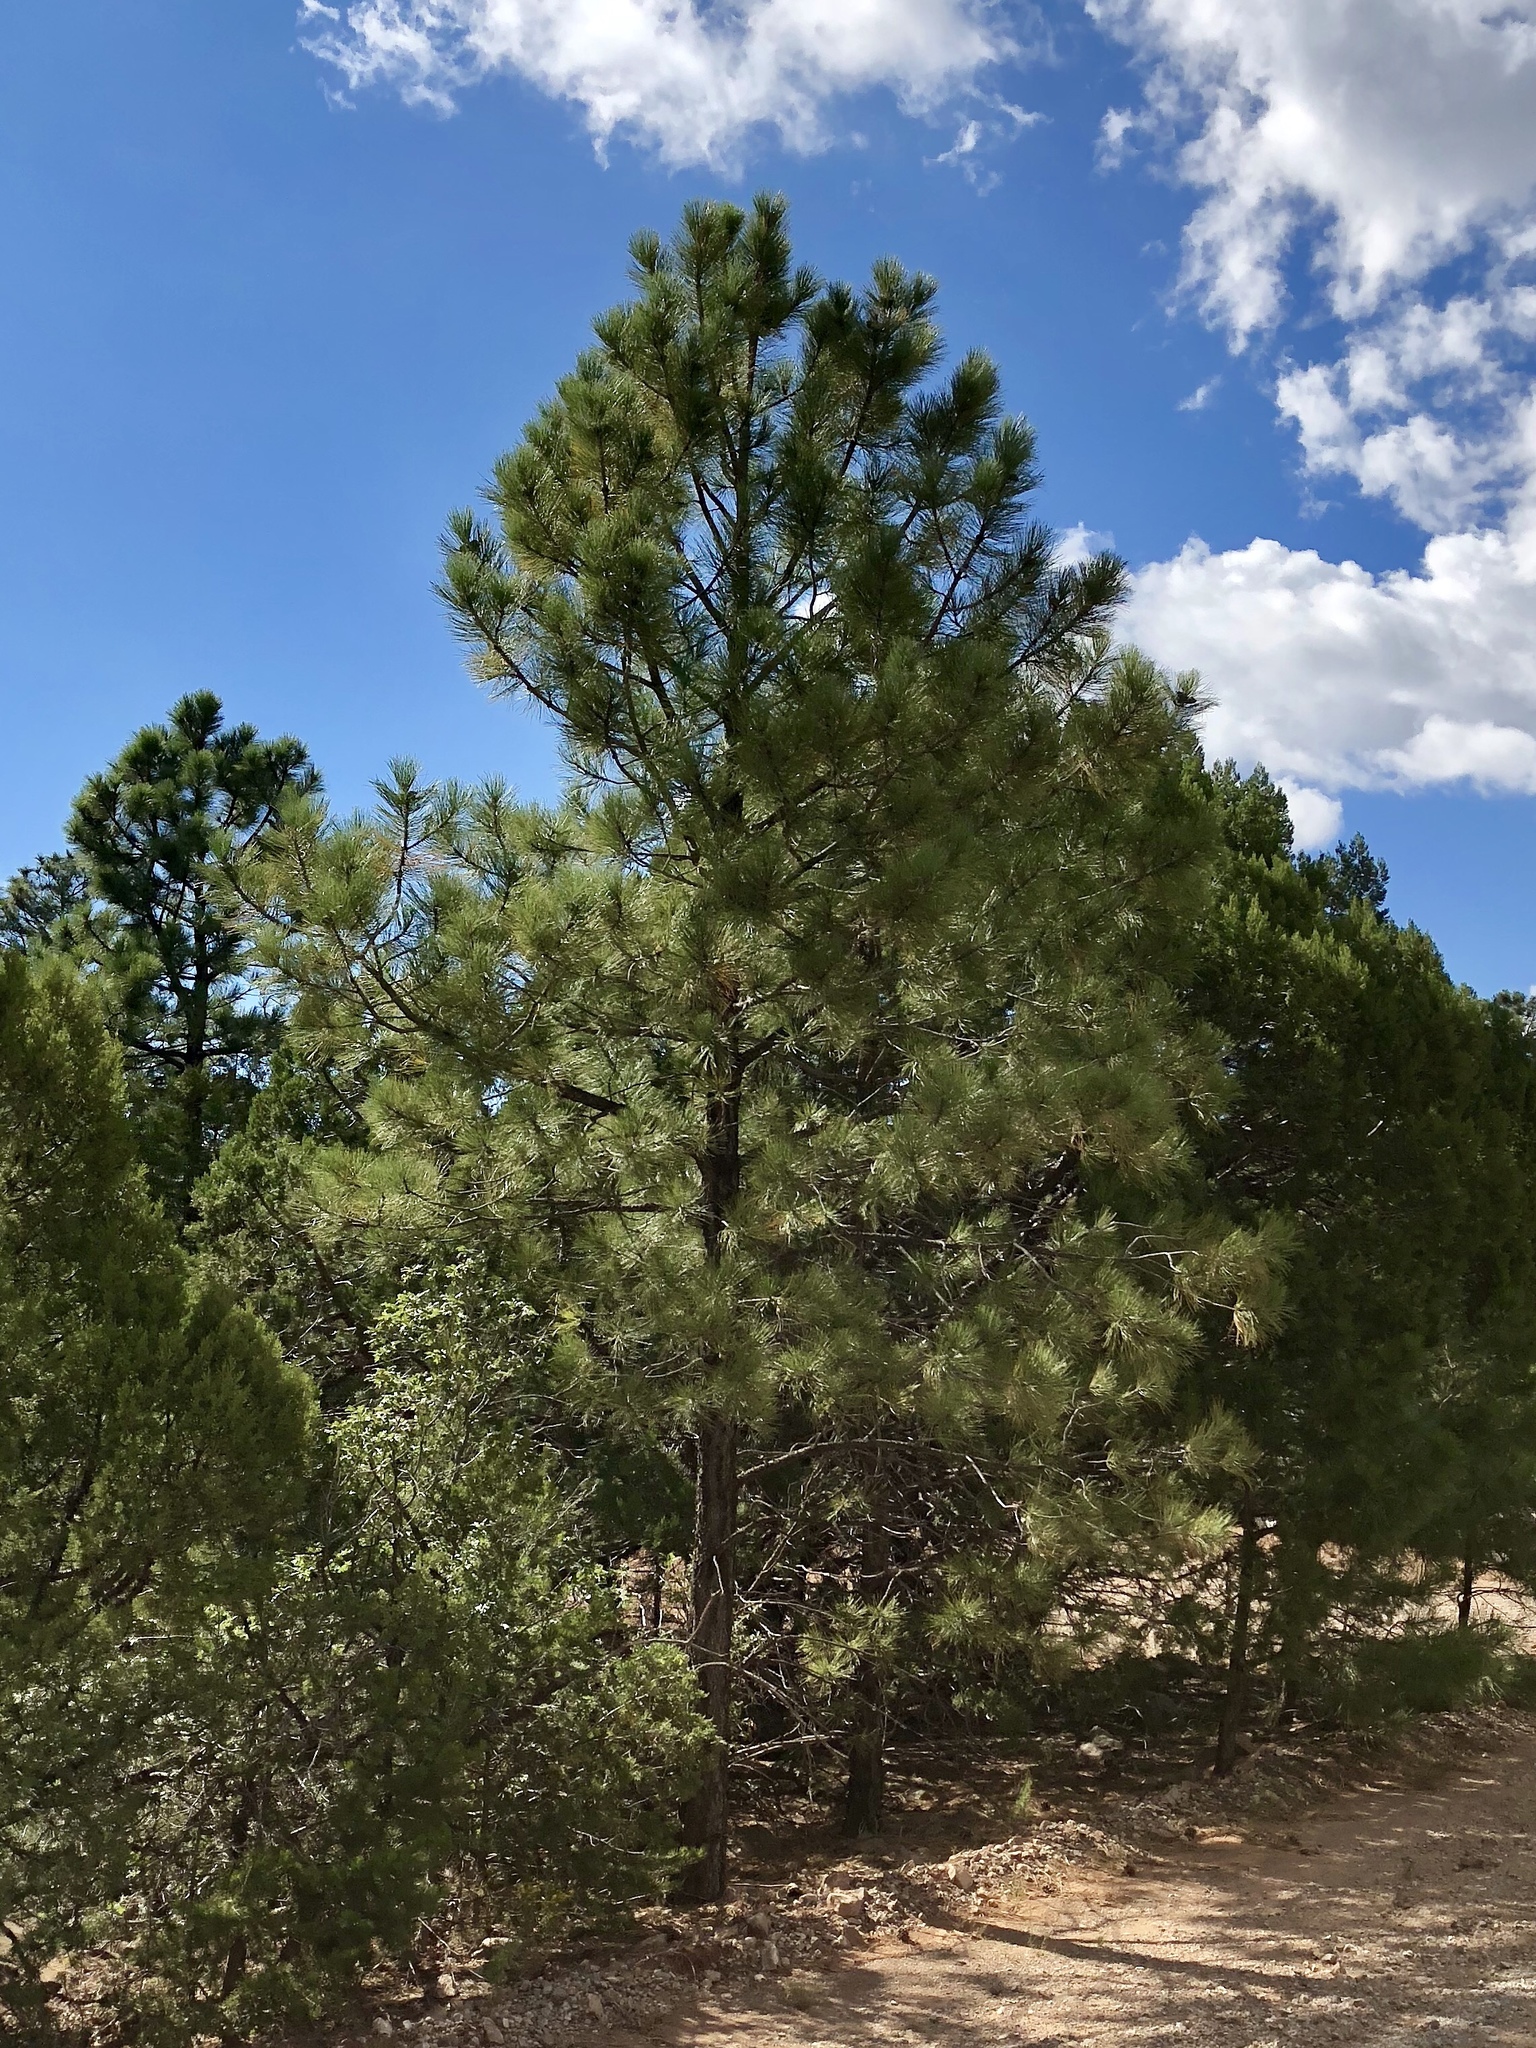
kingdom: Plantae
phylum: Tracheophyta
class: Pinopsida
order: Pinales
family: Pinaceae
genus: Pinus
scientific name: Pinus ponderosa
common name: Western yellow-pine
